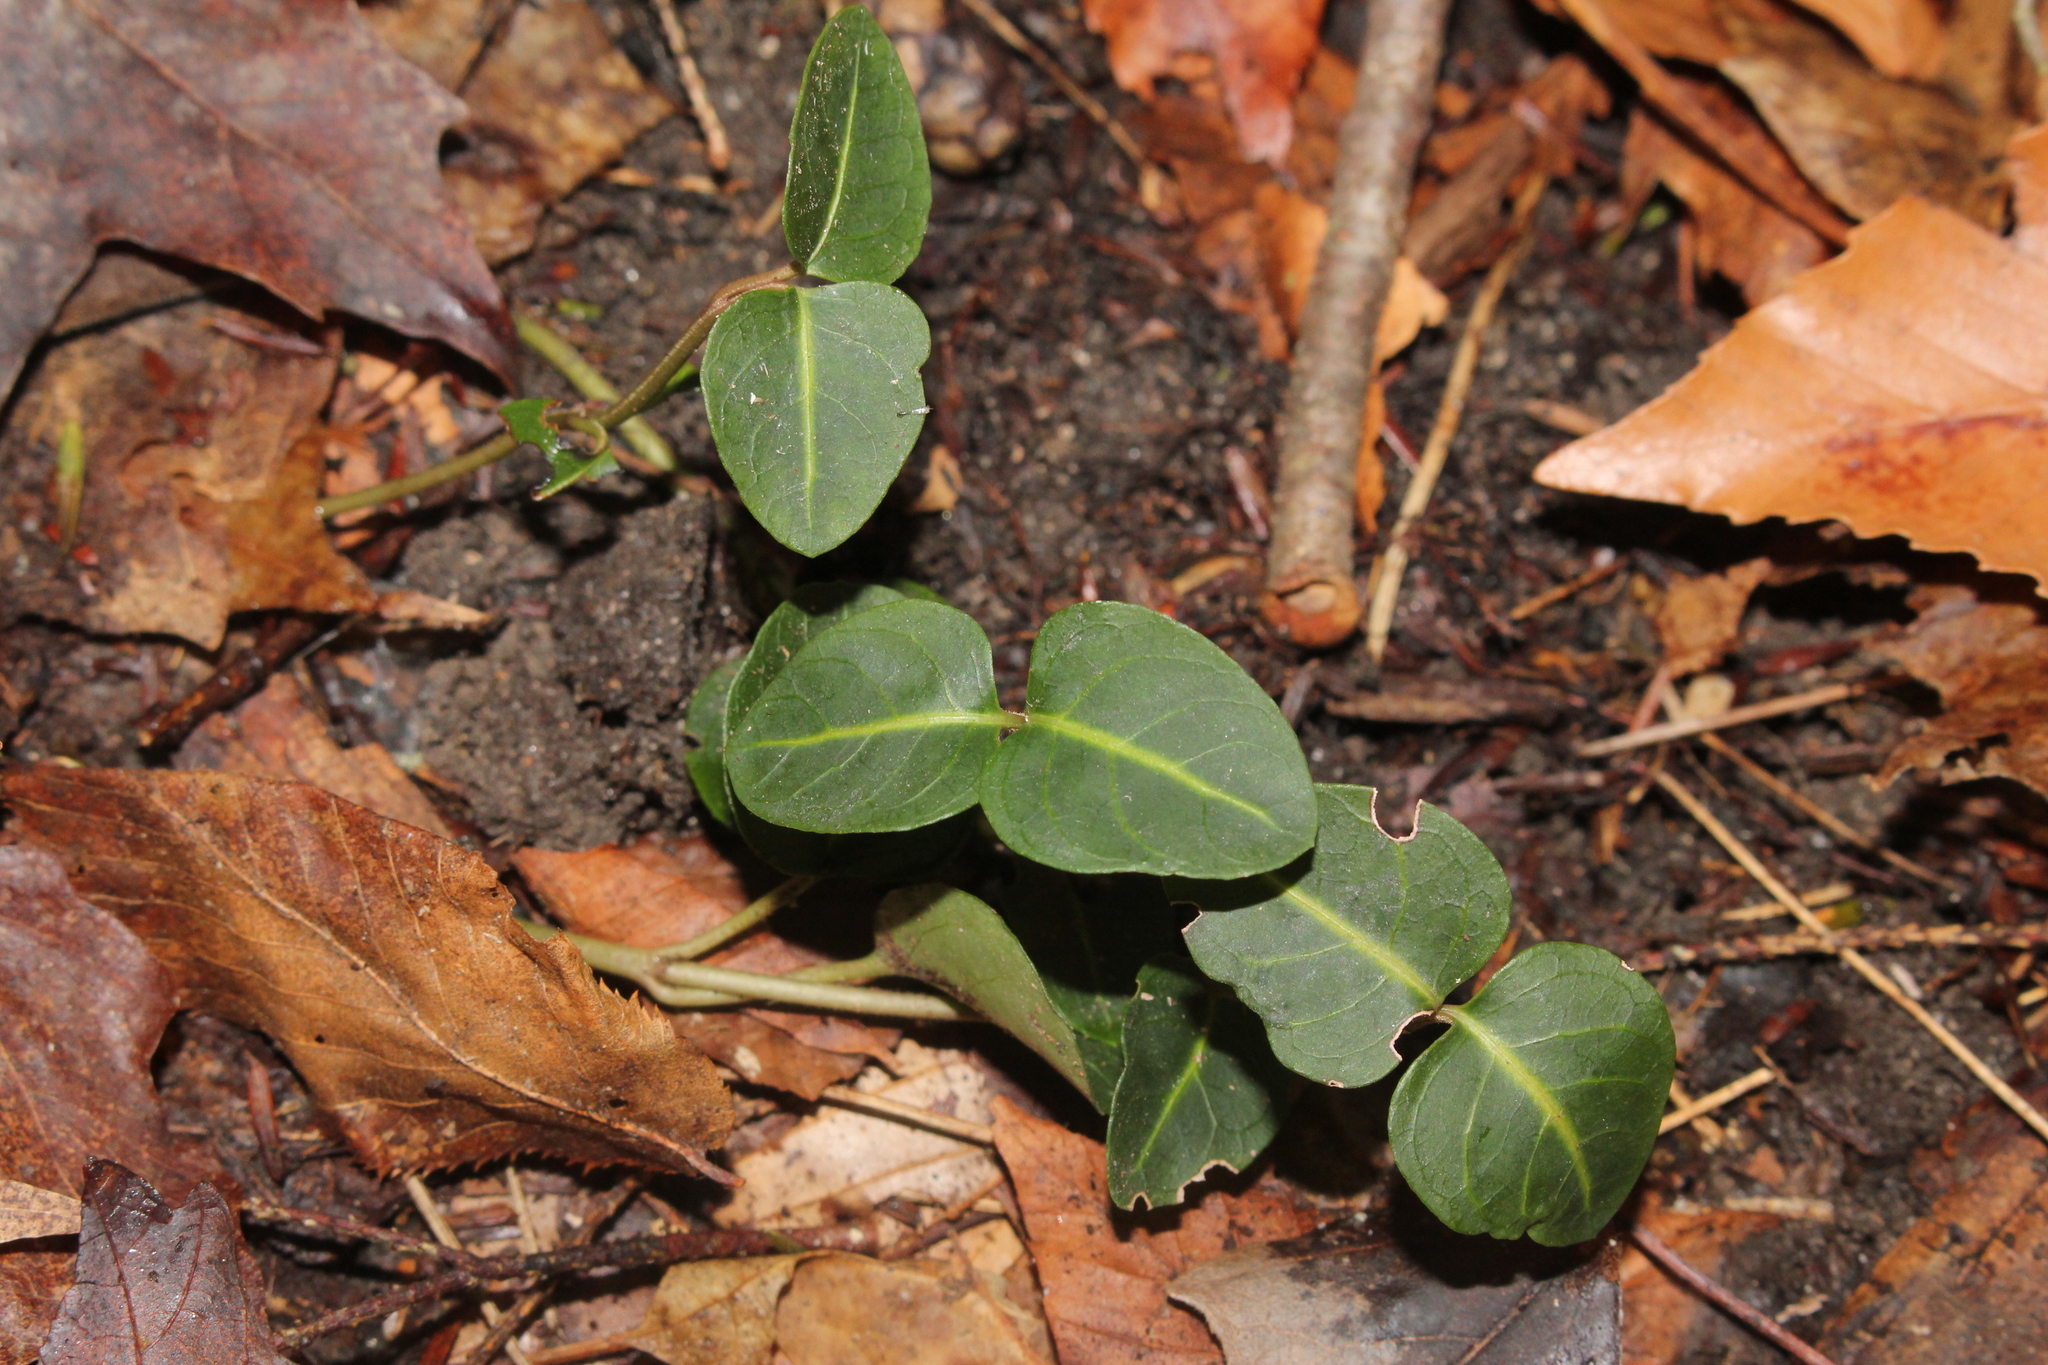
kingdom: Plantae
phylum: Tracheophyta
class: Magnoliopsida
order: Gentianales
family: Rubiaceae
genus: Mitchella
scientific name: Mitchella repens
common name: Partridge-berry
